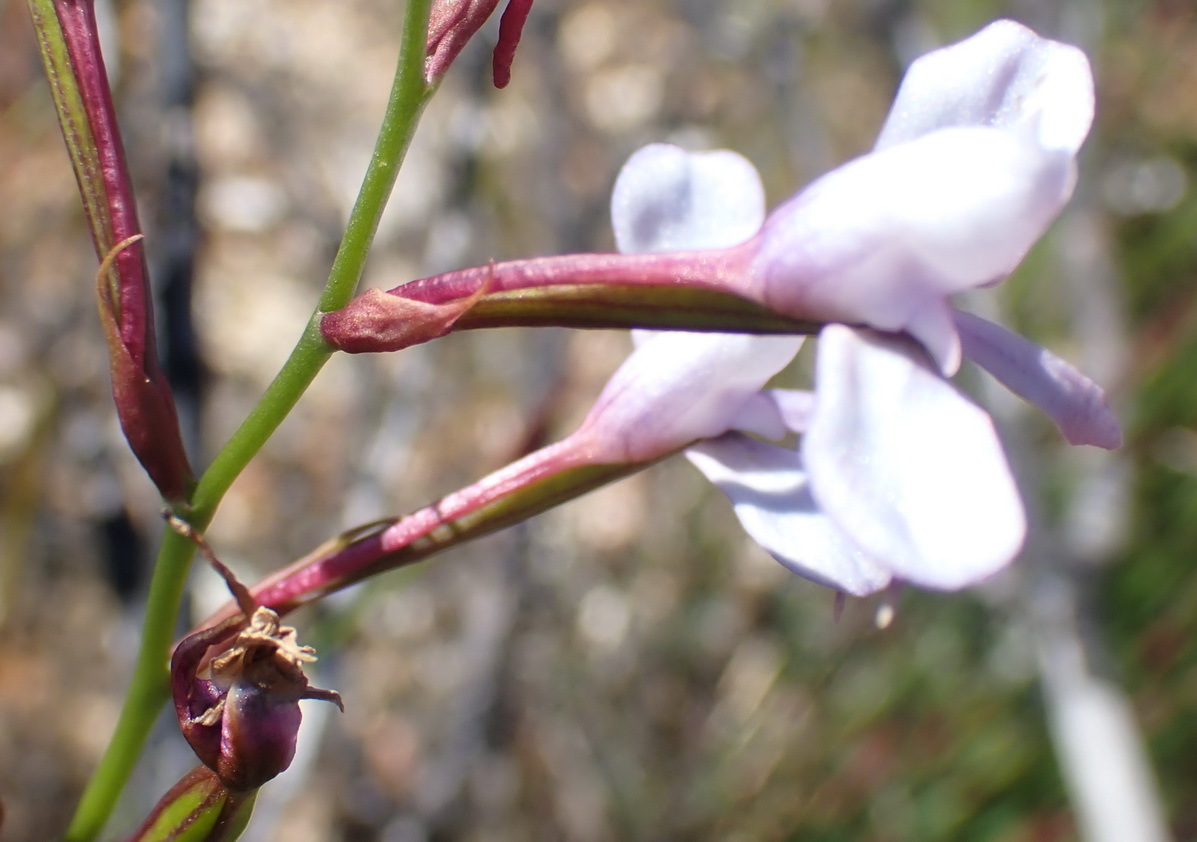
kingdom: Plantae
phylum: Tracheophyta
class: Liliopsida
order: Asparagales
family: Orchidaceae
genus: Disa
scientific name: Disa arida
